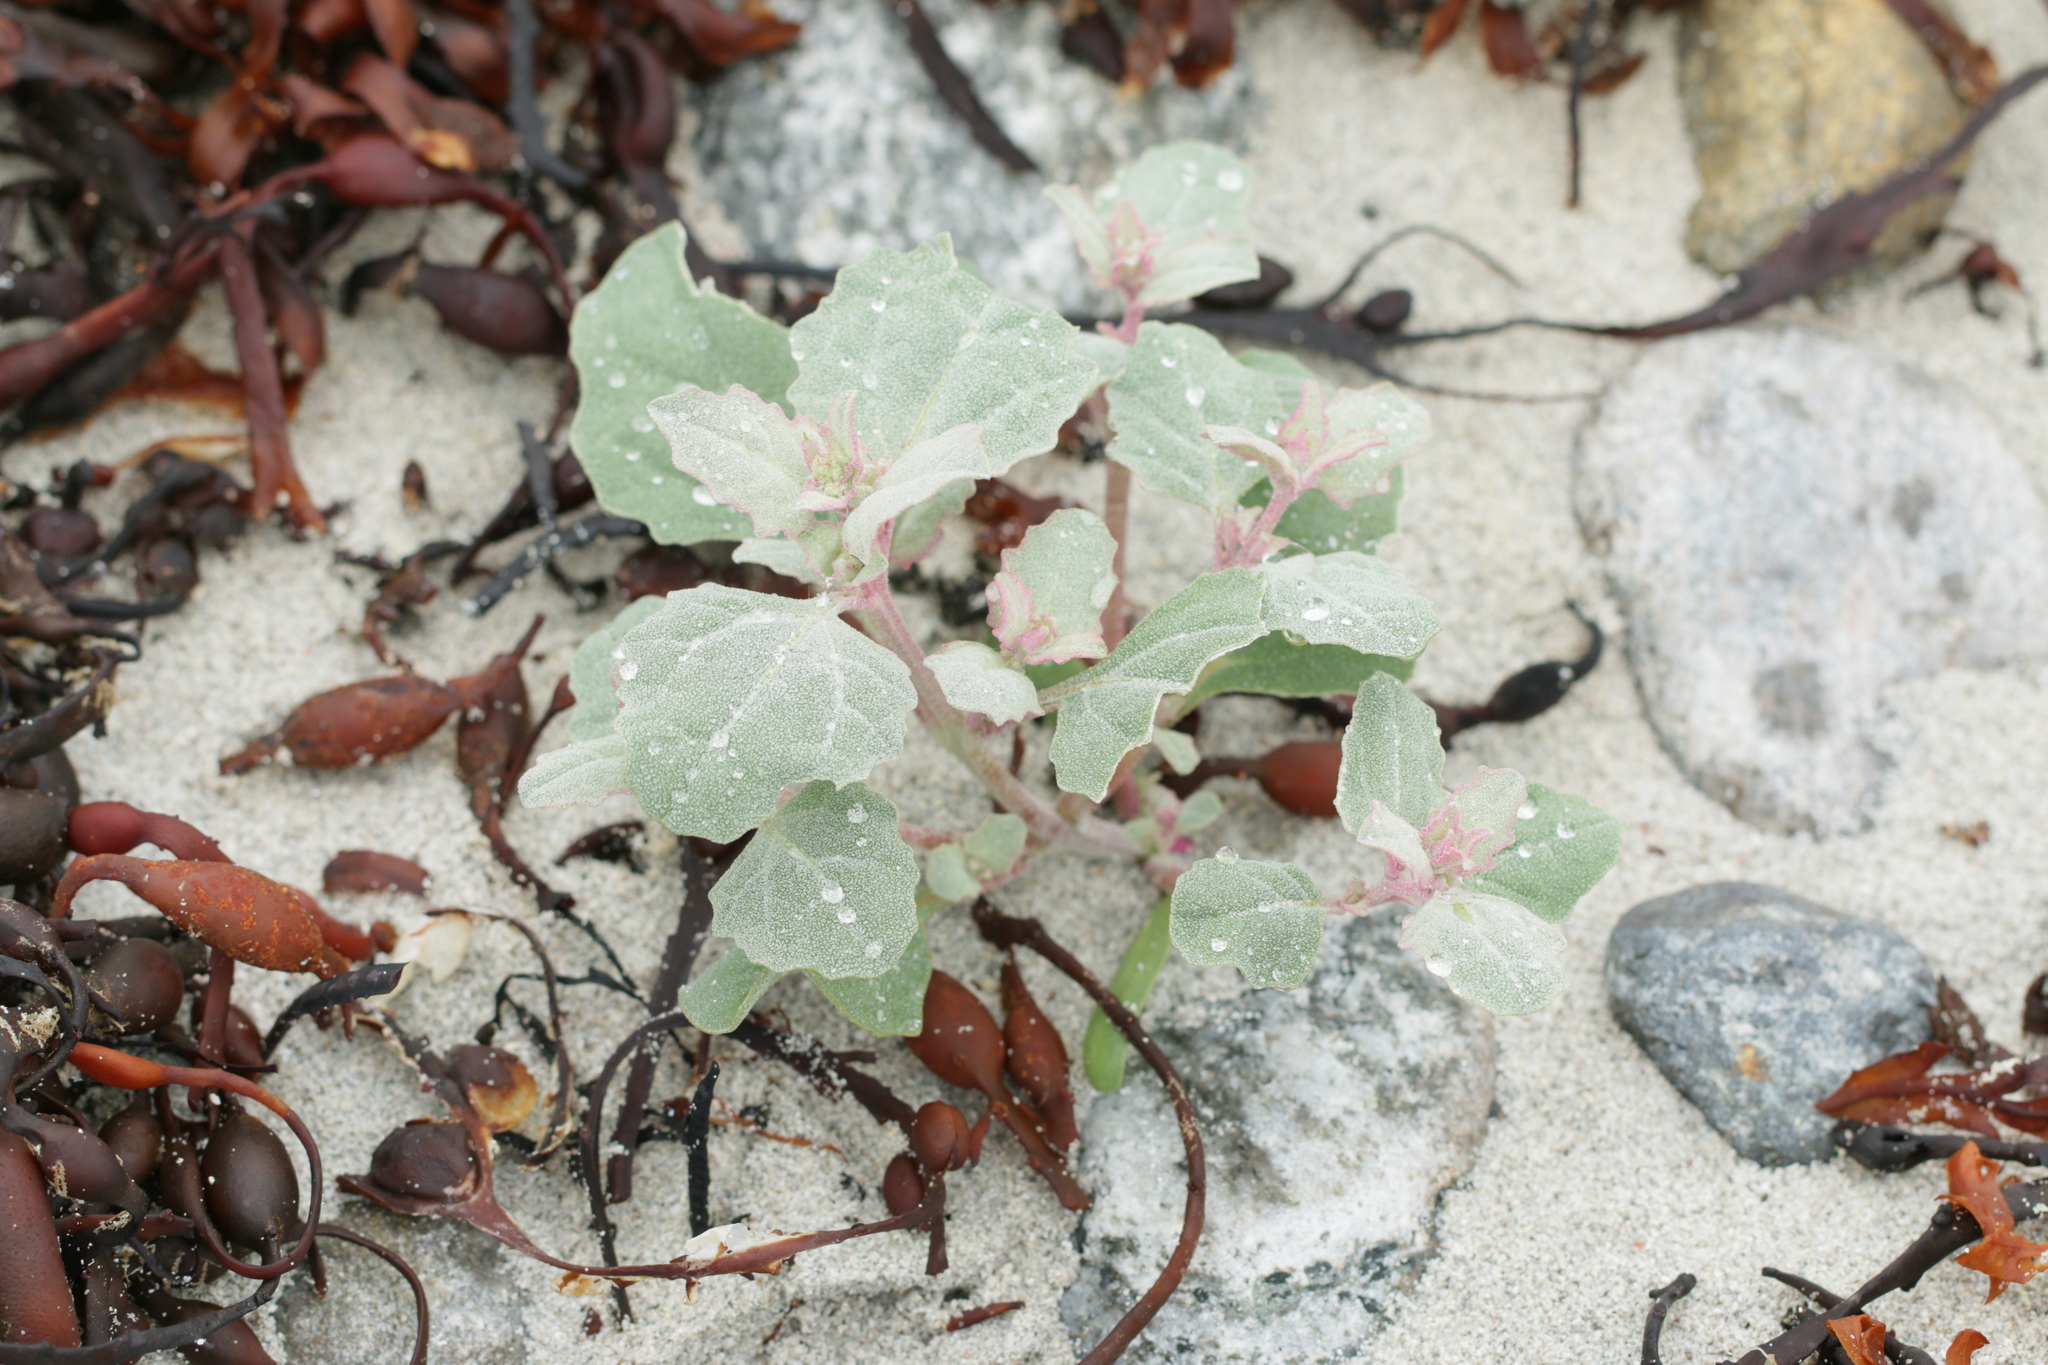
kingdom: Plantae
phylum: Tracheophyta
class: Magnoliopsida
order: Caryophyllales
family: Amaranthaceae
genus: Atriplex
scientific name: Atriplex laciniata
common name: Frosted orache
